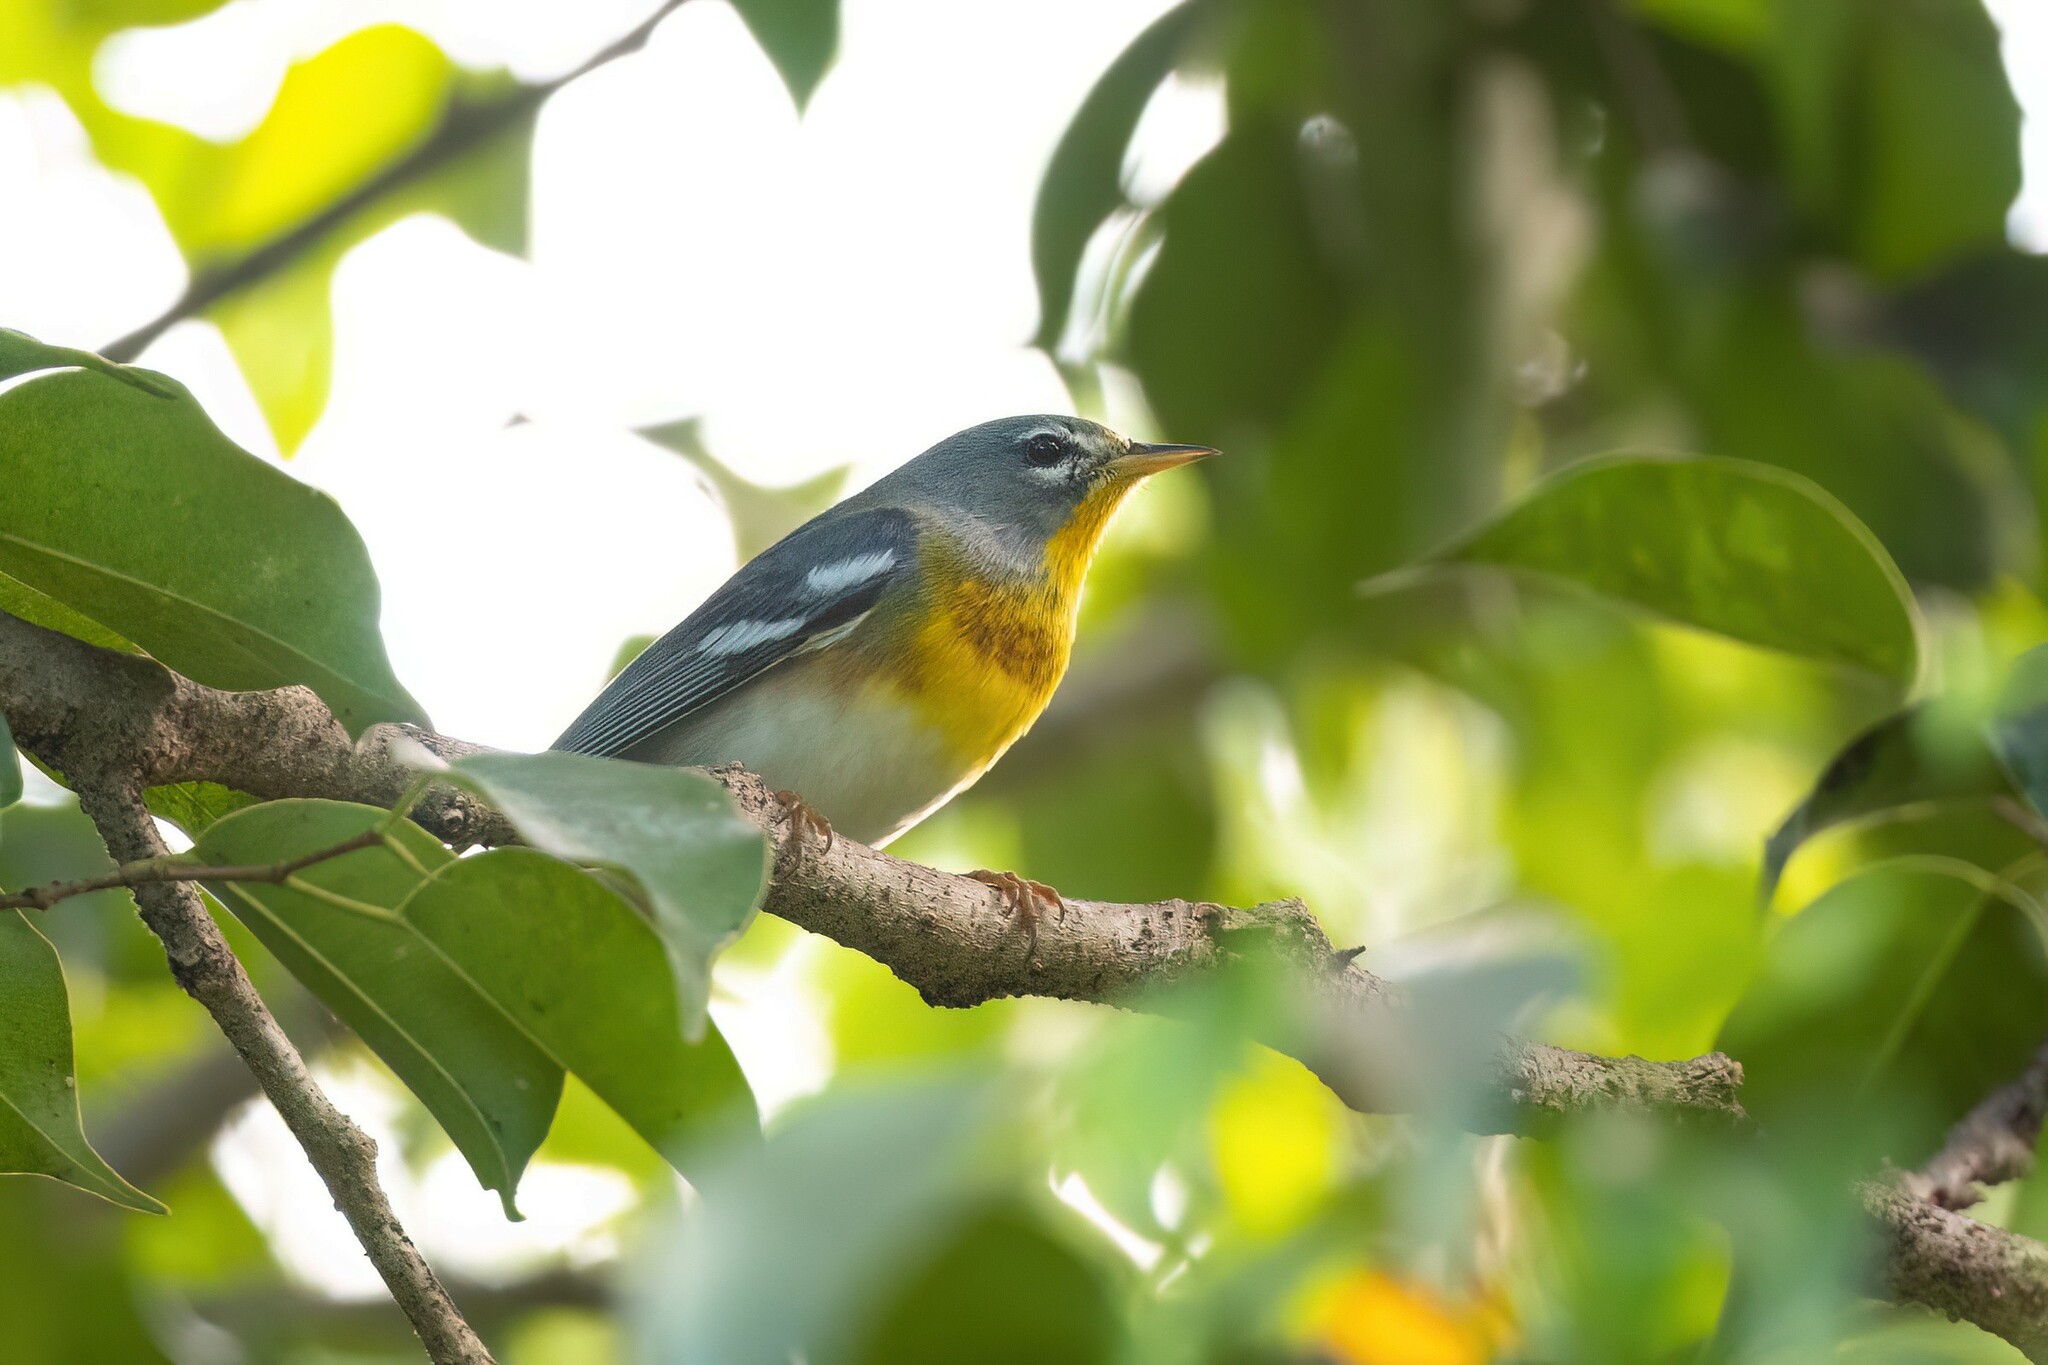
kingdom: Animalia
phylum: Chordata
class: Aves
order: Passeriformes
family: Parulidae
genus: Setophaga
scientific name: Setophaga americana
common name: Northern parula
